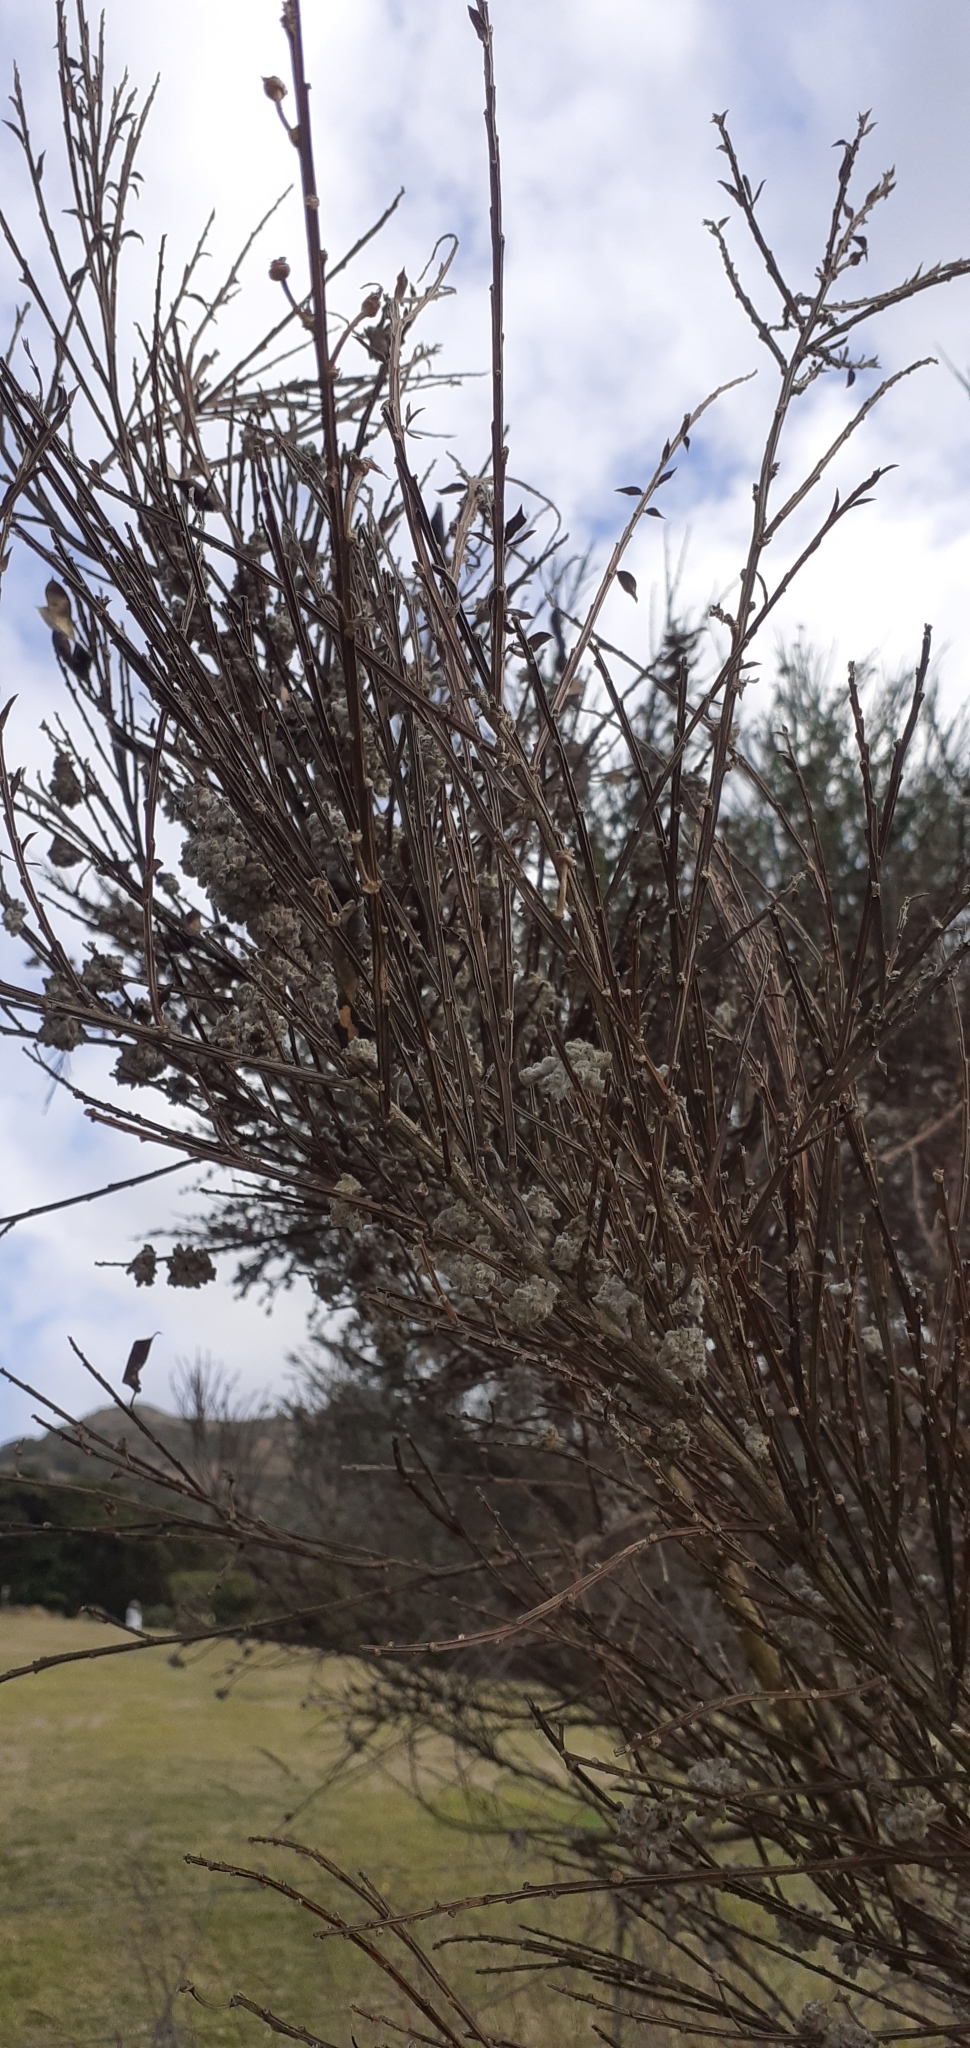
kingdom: Animalia
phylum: Arthropoda
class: Arachnida
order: Trombidiformes
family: Eriophyidae
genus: Aceria
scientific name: Aceria genistae
